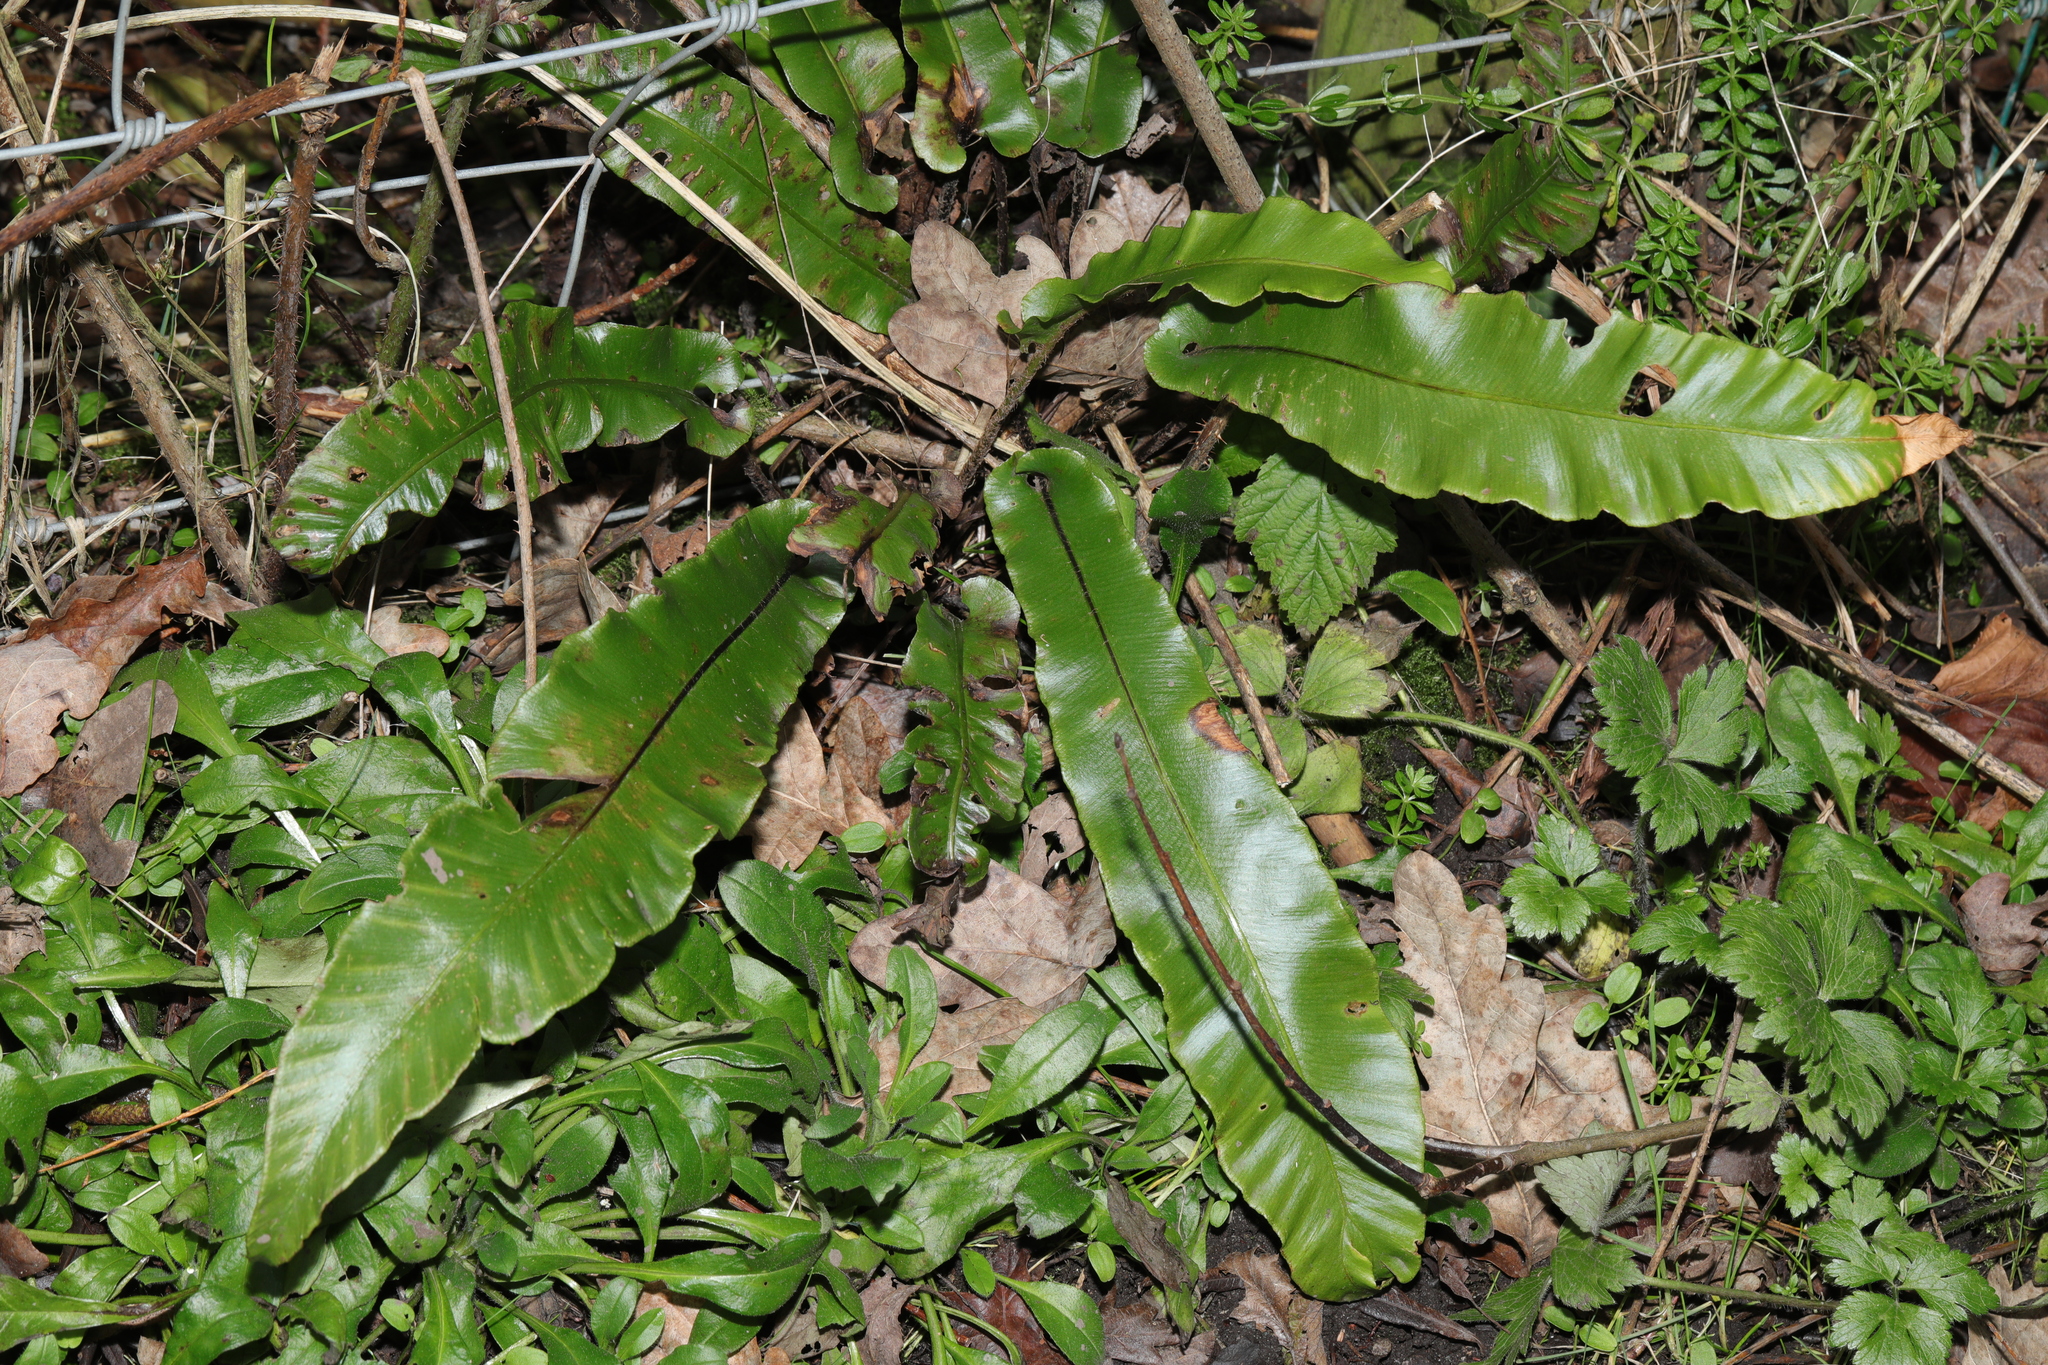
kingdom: Plantae
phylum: Tracheophyta
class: Polypodiopsida
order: Polypodiales
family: Aspleniaceae
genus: Asplenium
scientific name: Asplenium scolopendrium
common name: Hart's-tongue fern
